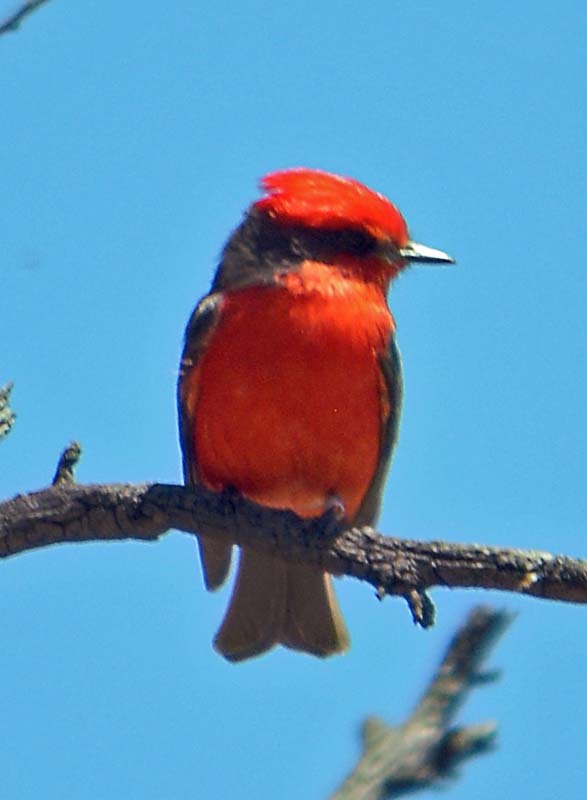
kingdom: Animalia
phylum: Chordata
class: Aves
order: Passeriformes
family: Tyrannidae
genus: Pyrocephalus
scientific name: Pyrocephalus rubinus
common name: Vermilion flycatcher
